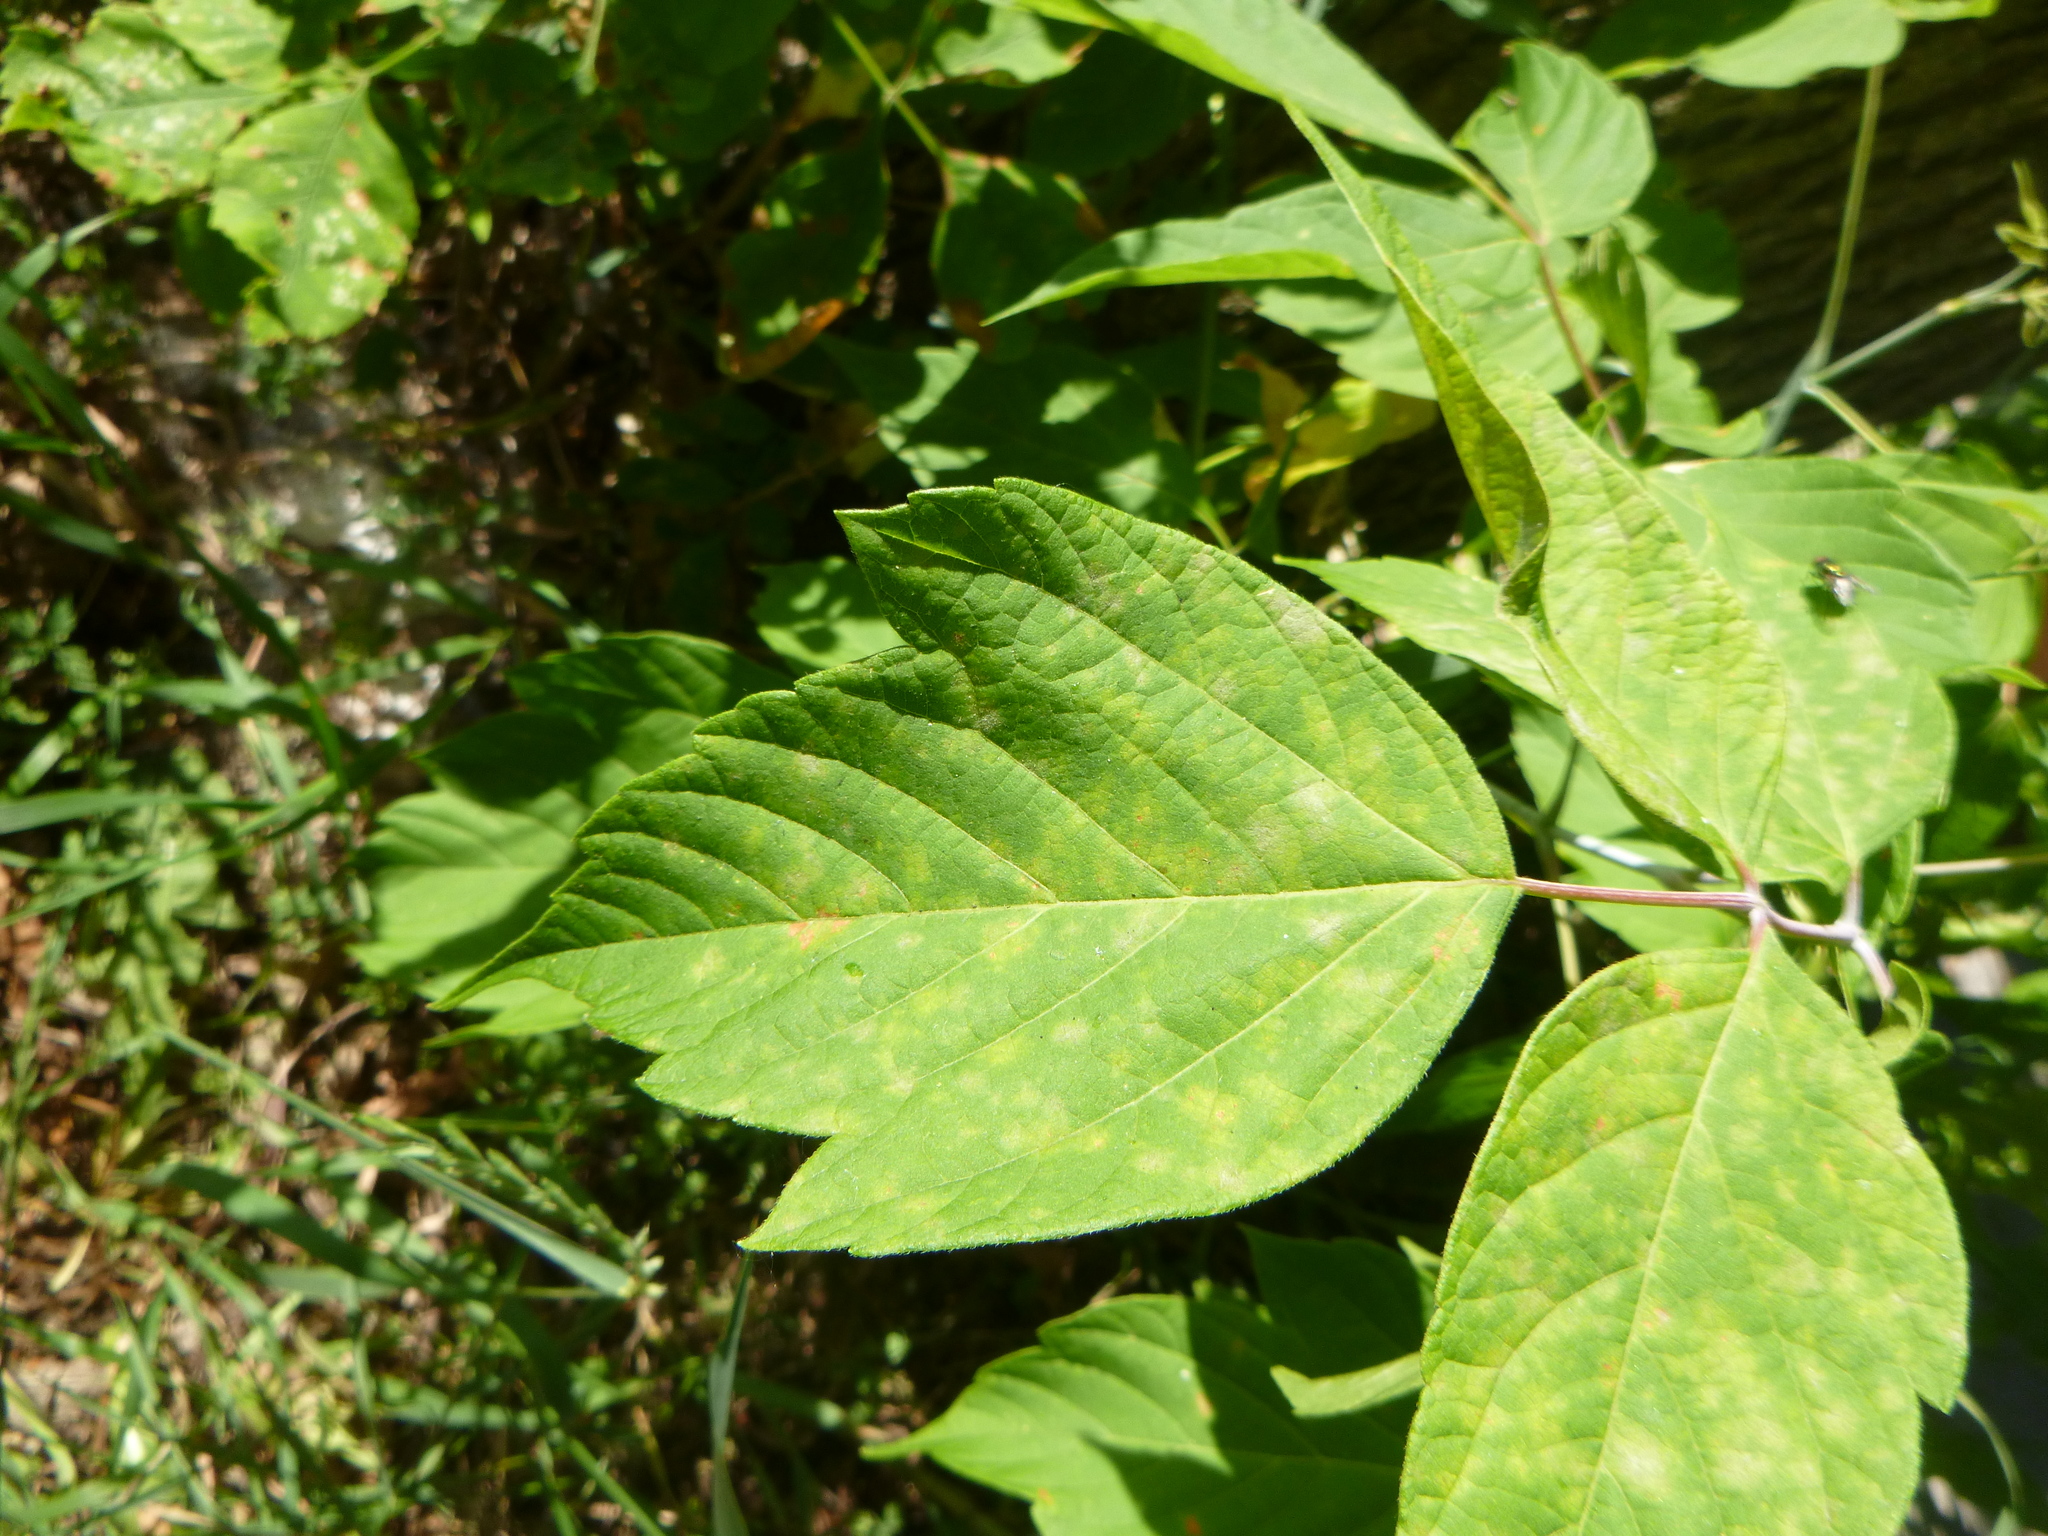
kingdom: Plantae
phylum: Tracheophyta
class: Magnoliopsida
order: Sapindales
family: Sapindaceae
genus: Acer
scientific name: Acer negundo
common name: Ashleaf maple
